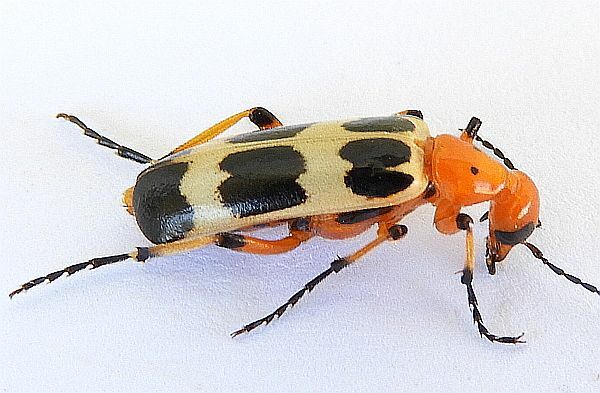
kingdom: Animalia
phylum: Arthropoda
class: Insecta
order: Coleoptera
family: Meloidae
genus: Pyrota
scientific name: Pyrota palpalis
